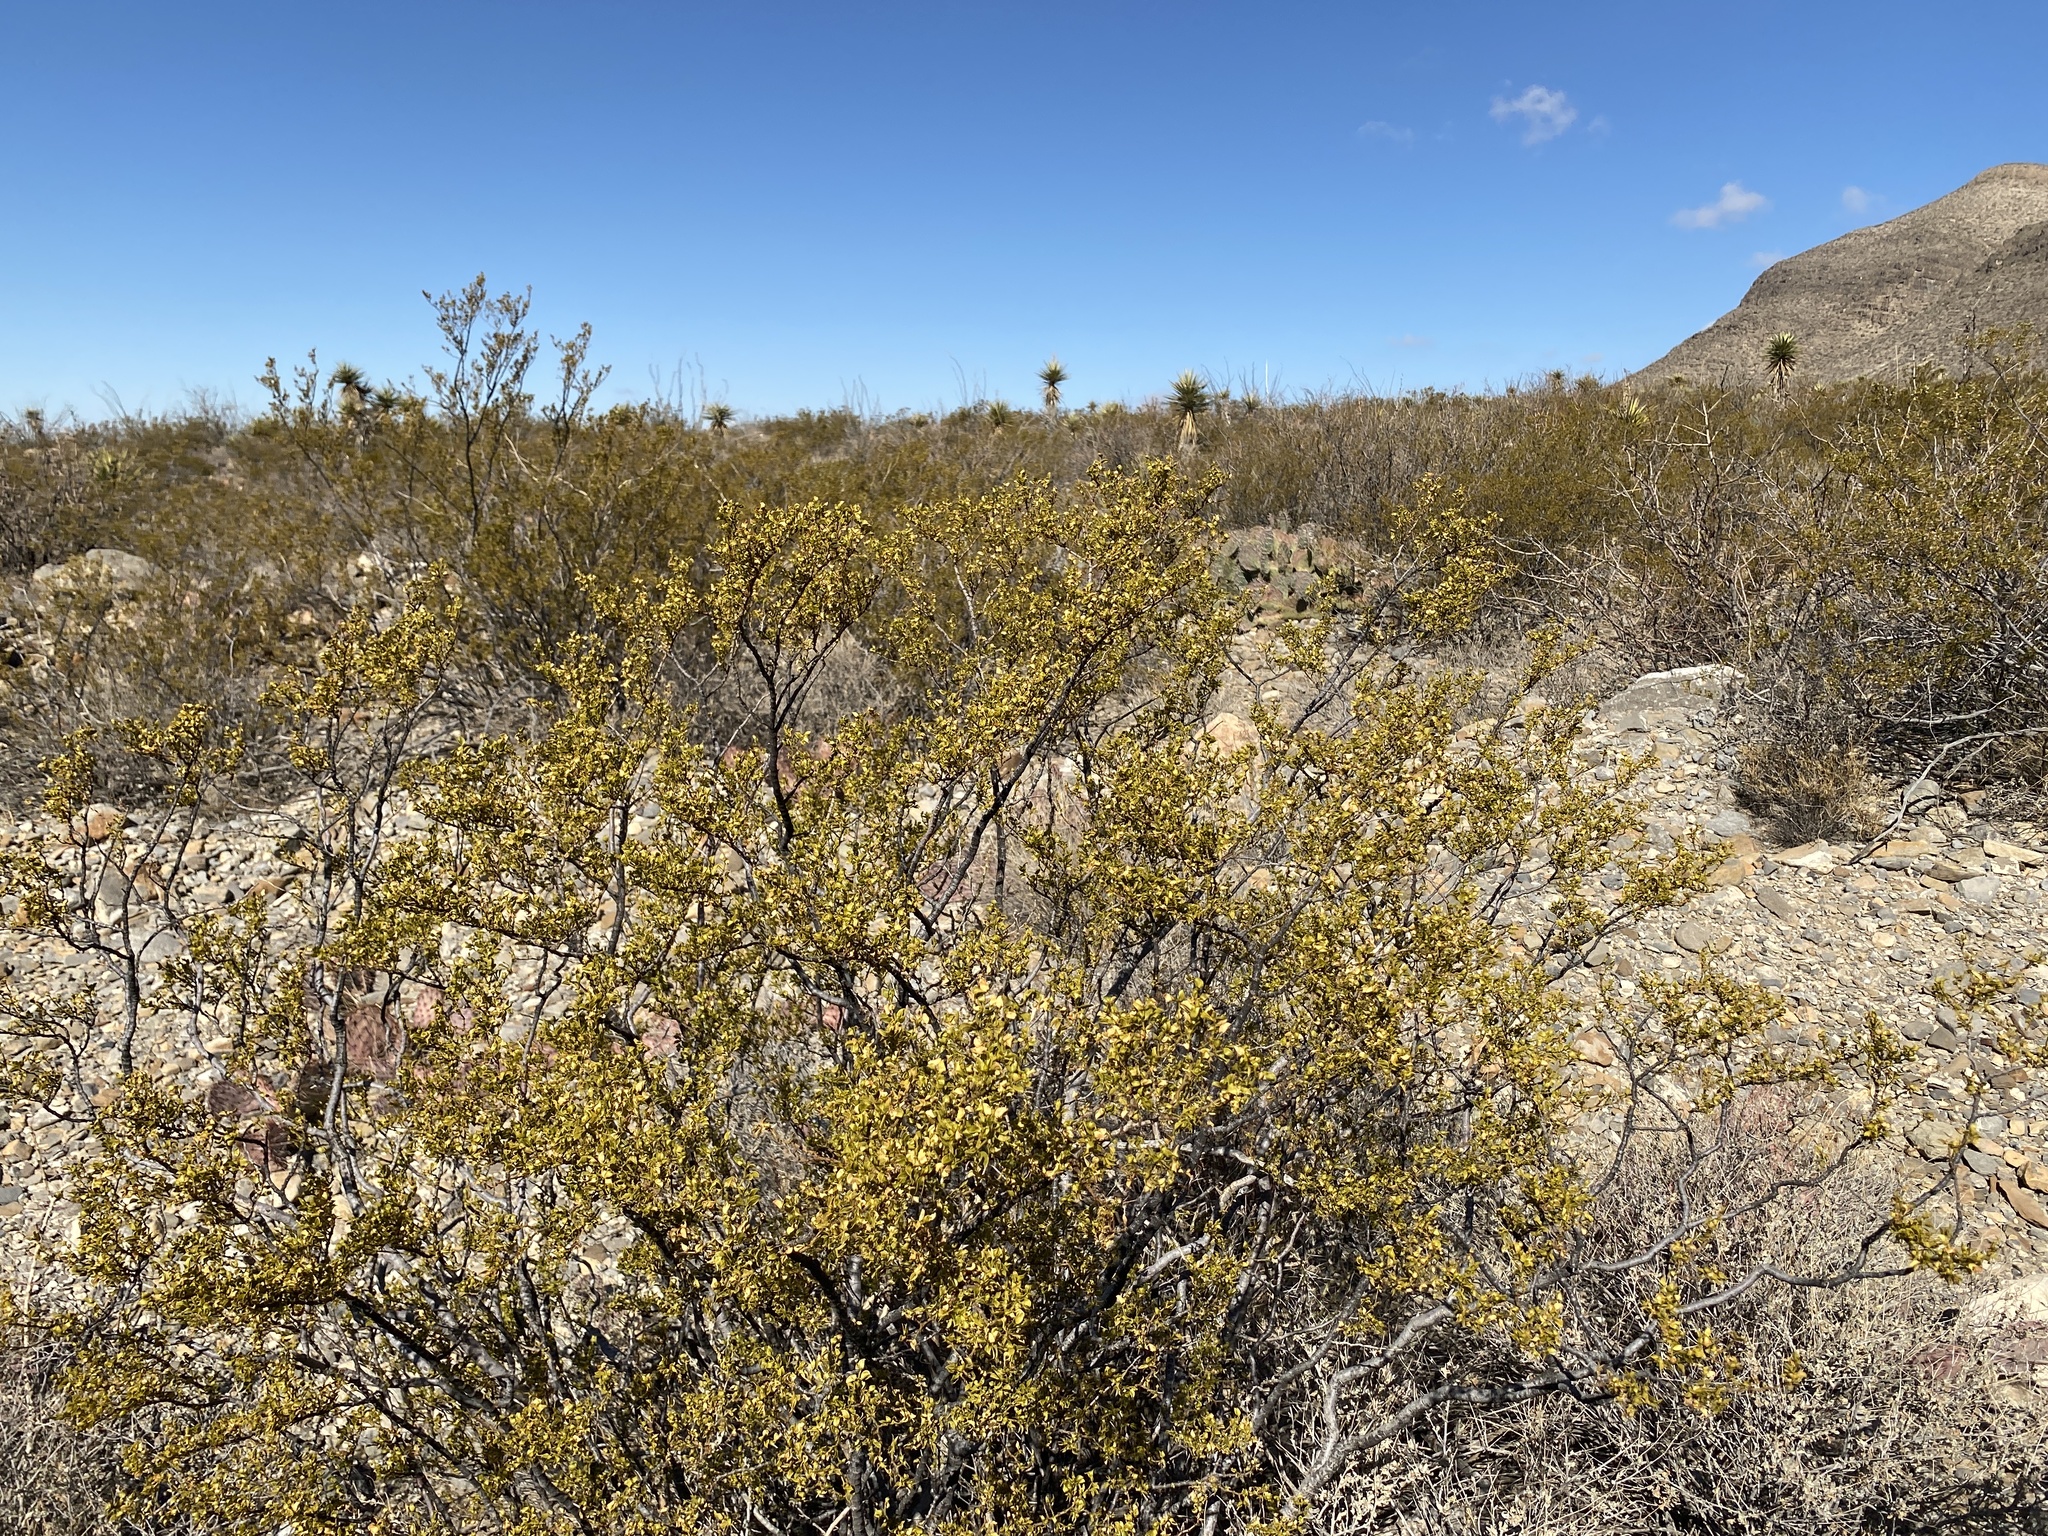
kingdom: Plantae
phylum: Tracheophyta
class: Magnoliopsida
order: Zygophyllales
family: Zygophyllaceae
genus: Larrea
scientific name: Larrea tridentata
